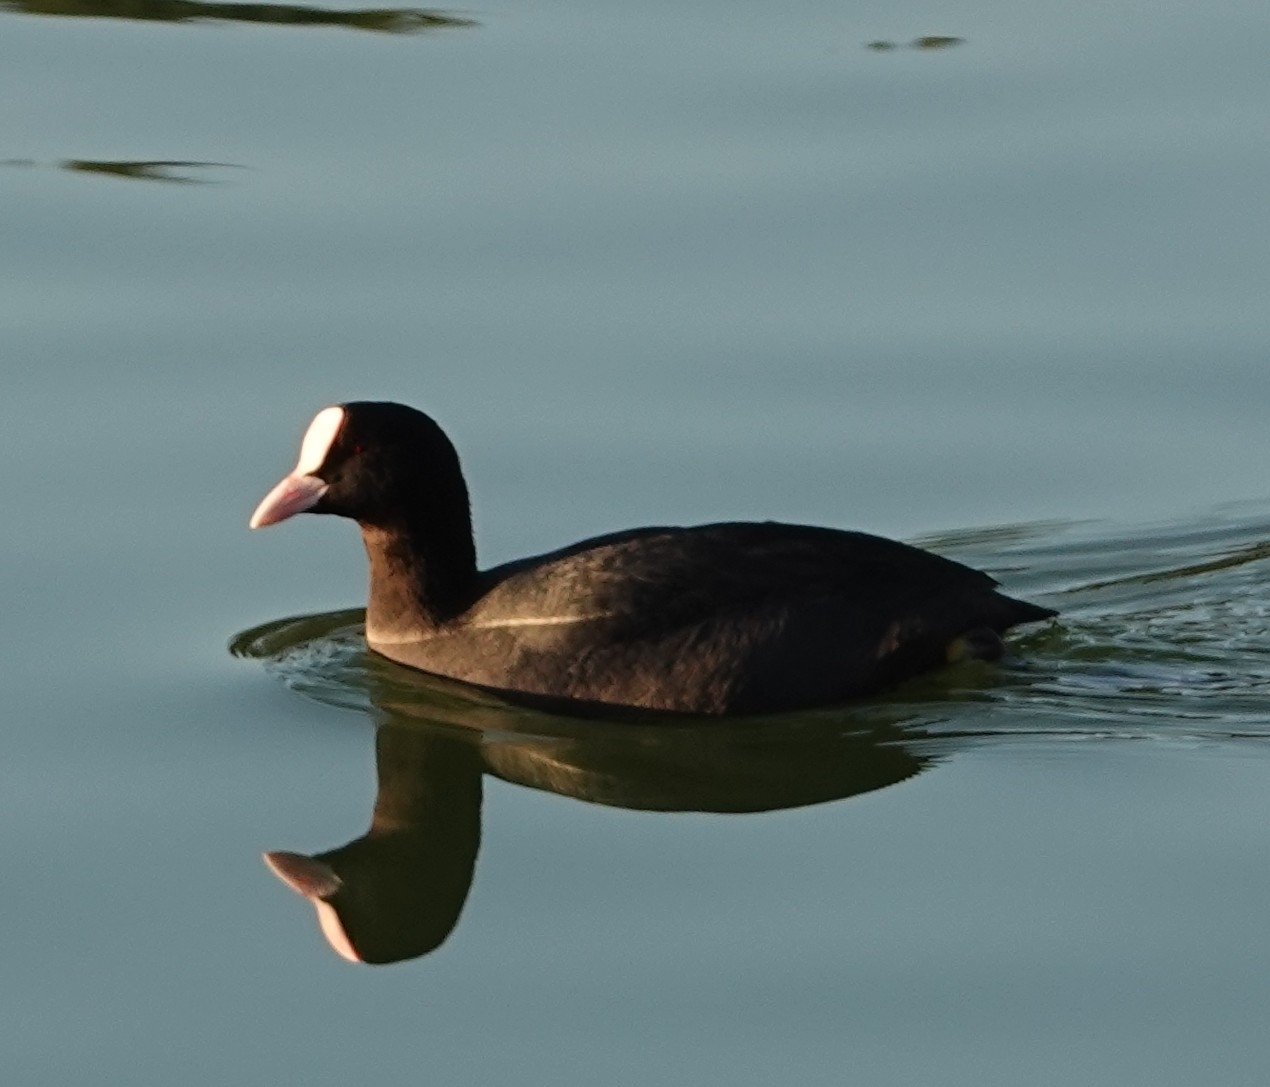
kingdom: Animalia
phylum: Chordata
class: Aves
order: Gruiformes
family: Rallidae
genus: Fulica
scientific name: Fulica atra
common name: Eurasian coot
